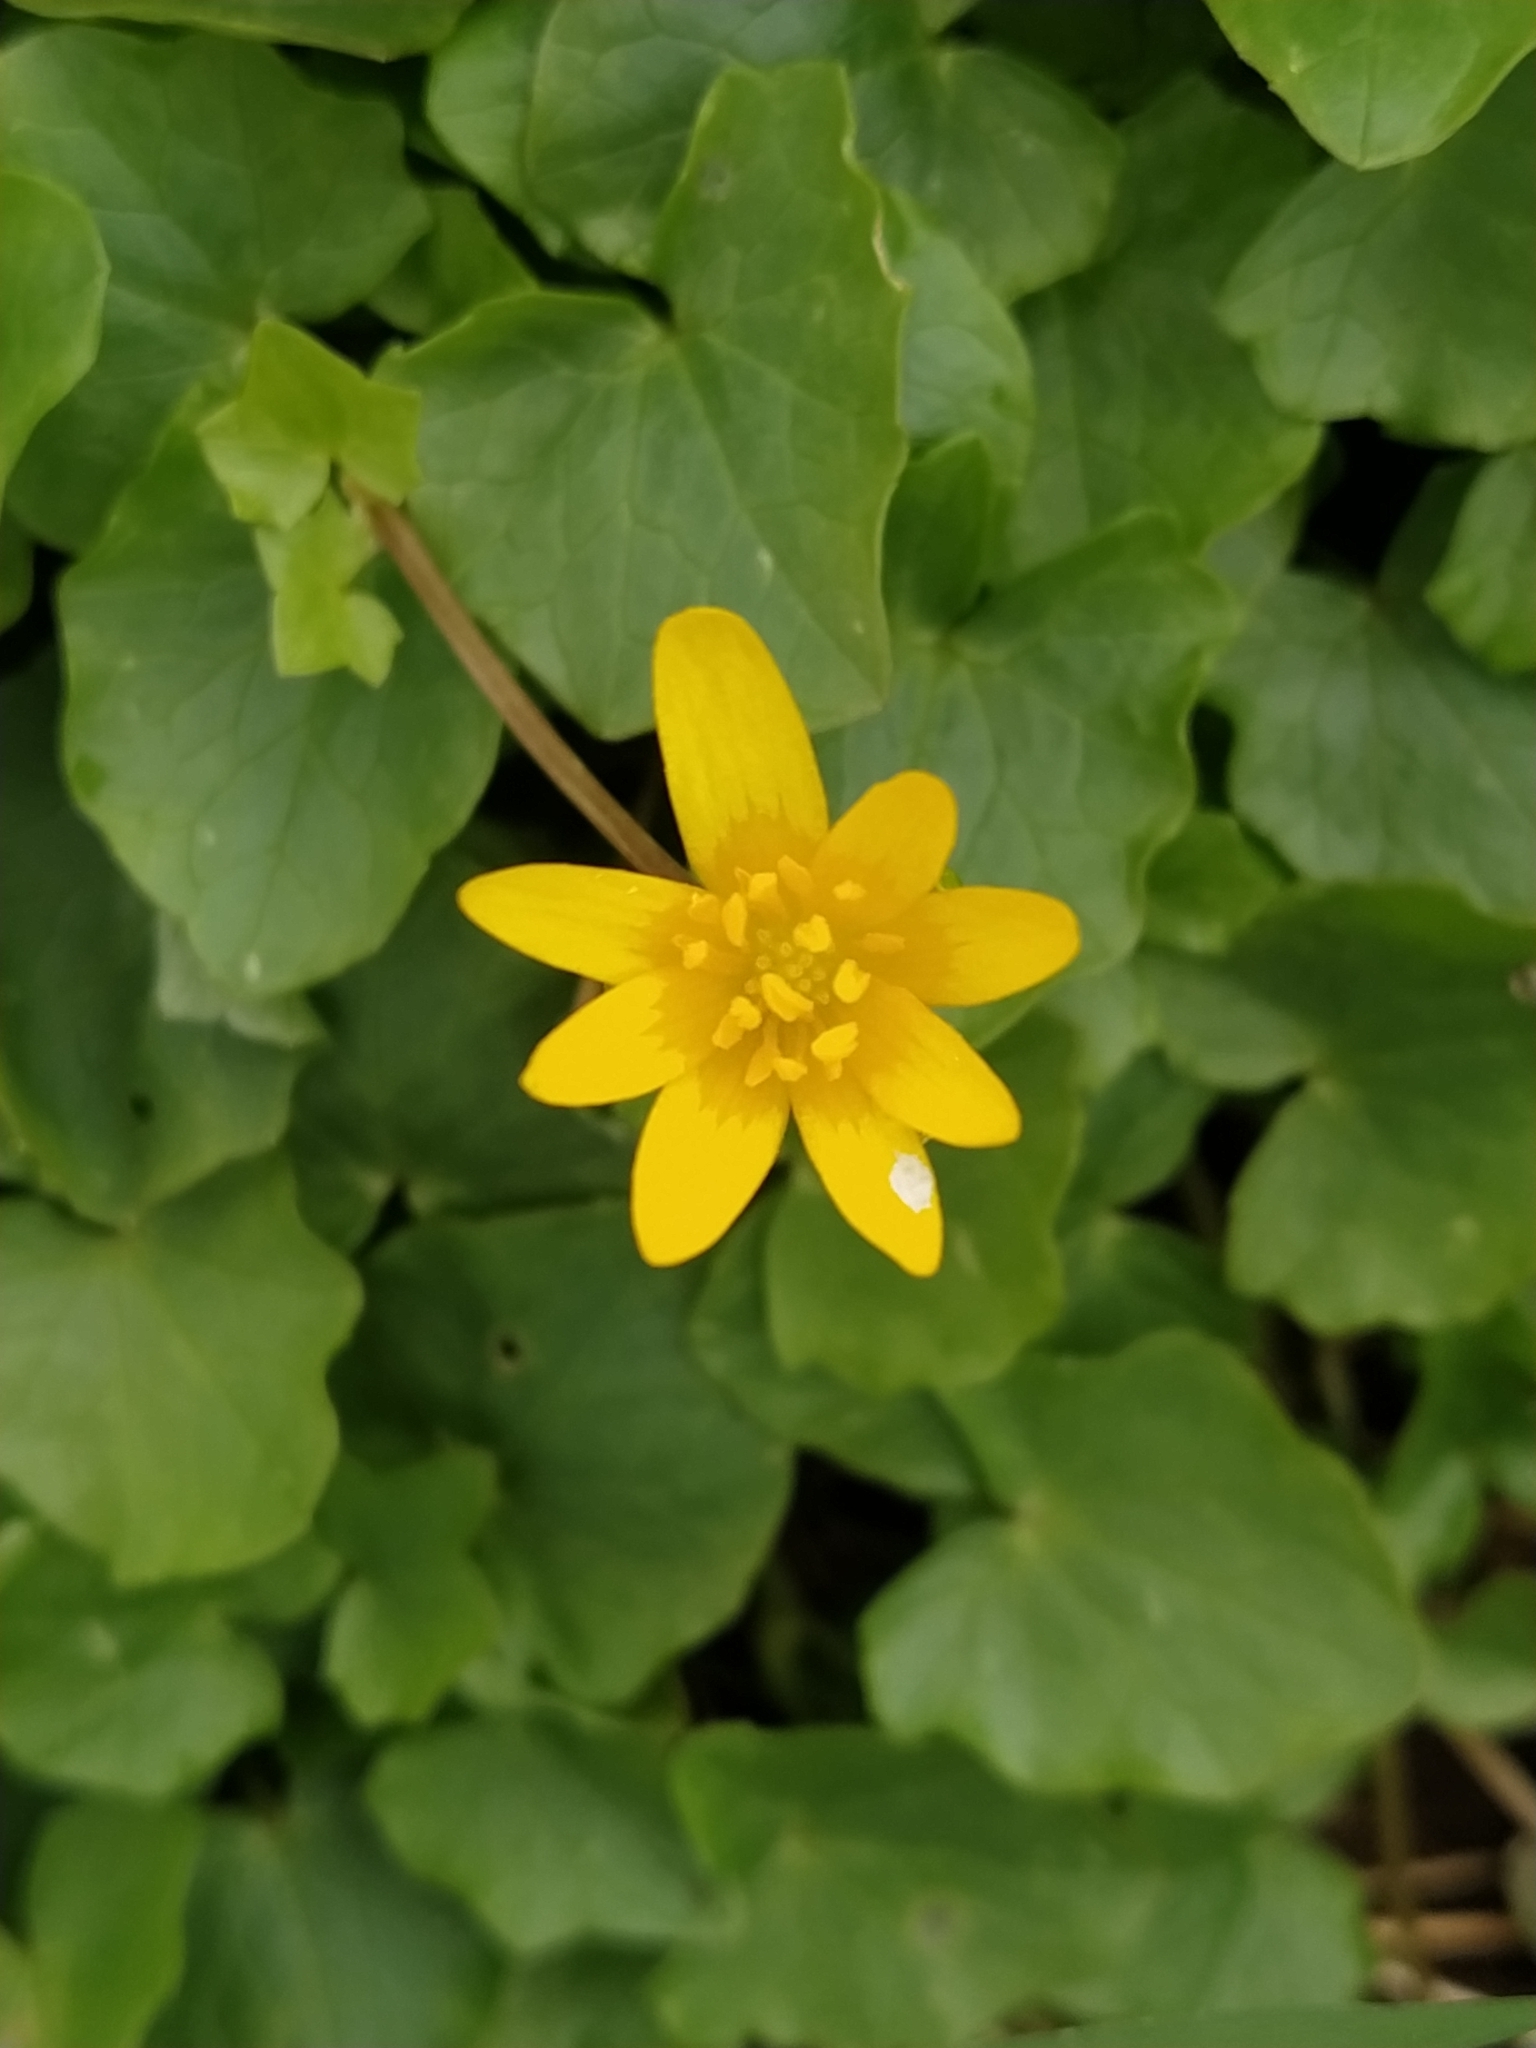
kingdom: Plantae
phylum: Tracheophyta
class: Magnoliopsida
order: Ranunculales
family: Ranunculaceae
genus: Ficaria
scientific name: Ficaria verna
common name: Lesser celandine
